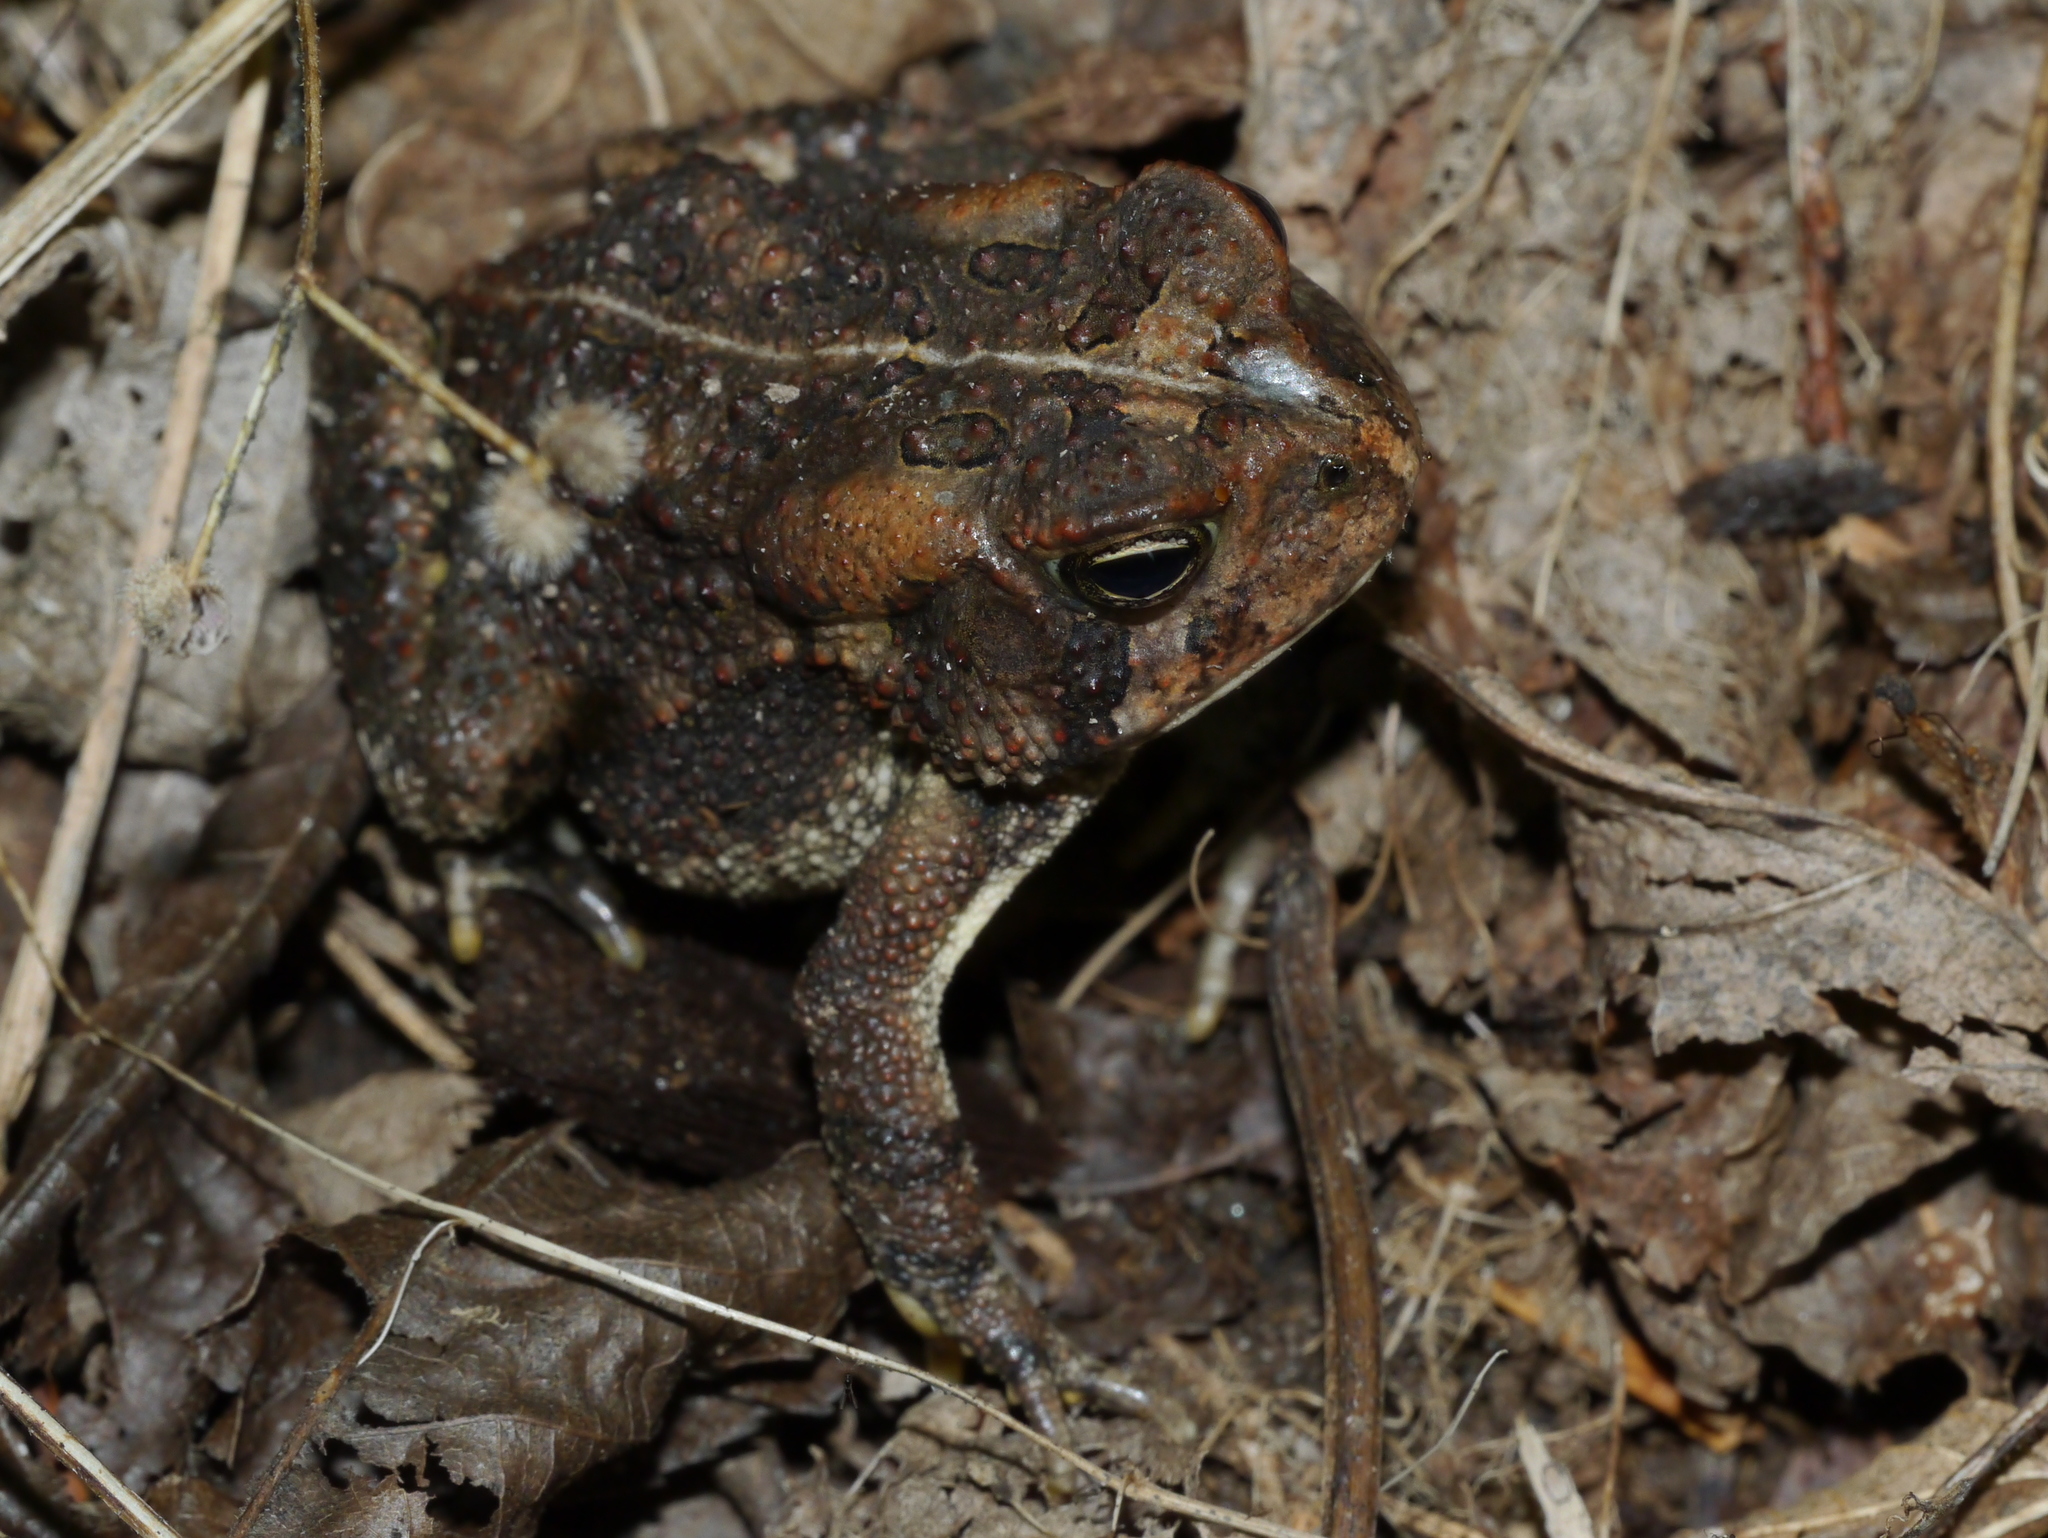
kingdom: Animalia
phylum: Chordata
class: Amphibia
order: Anura
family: Bufonidae
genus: Anaxyrus
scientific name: Anaxyrus fowleri
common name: Fowler's toad
